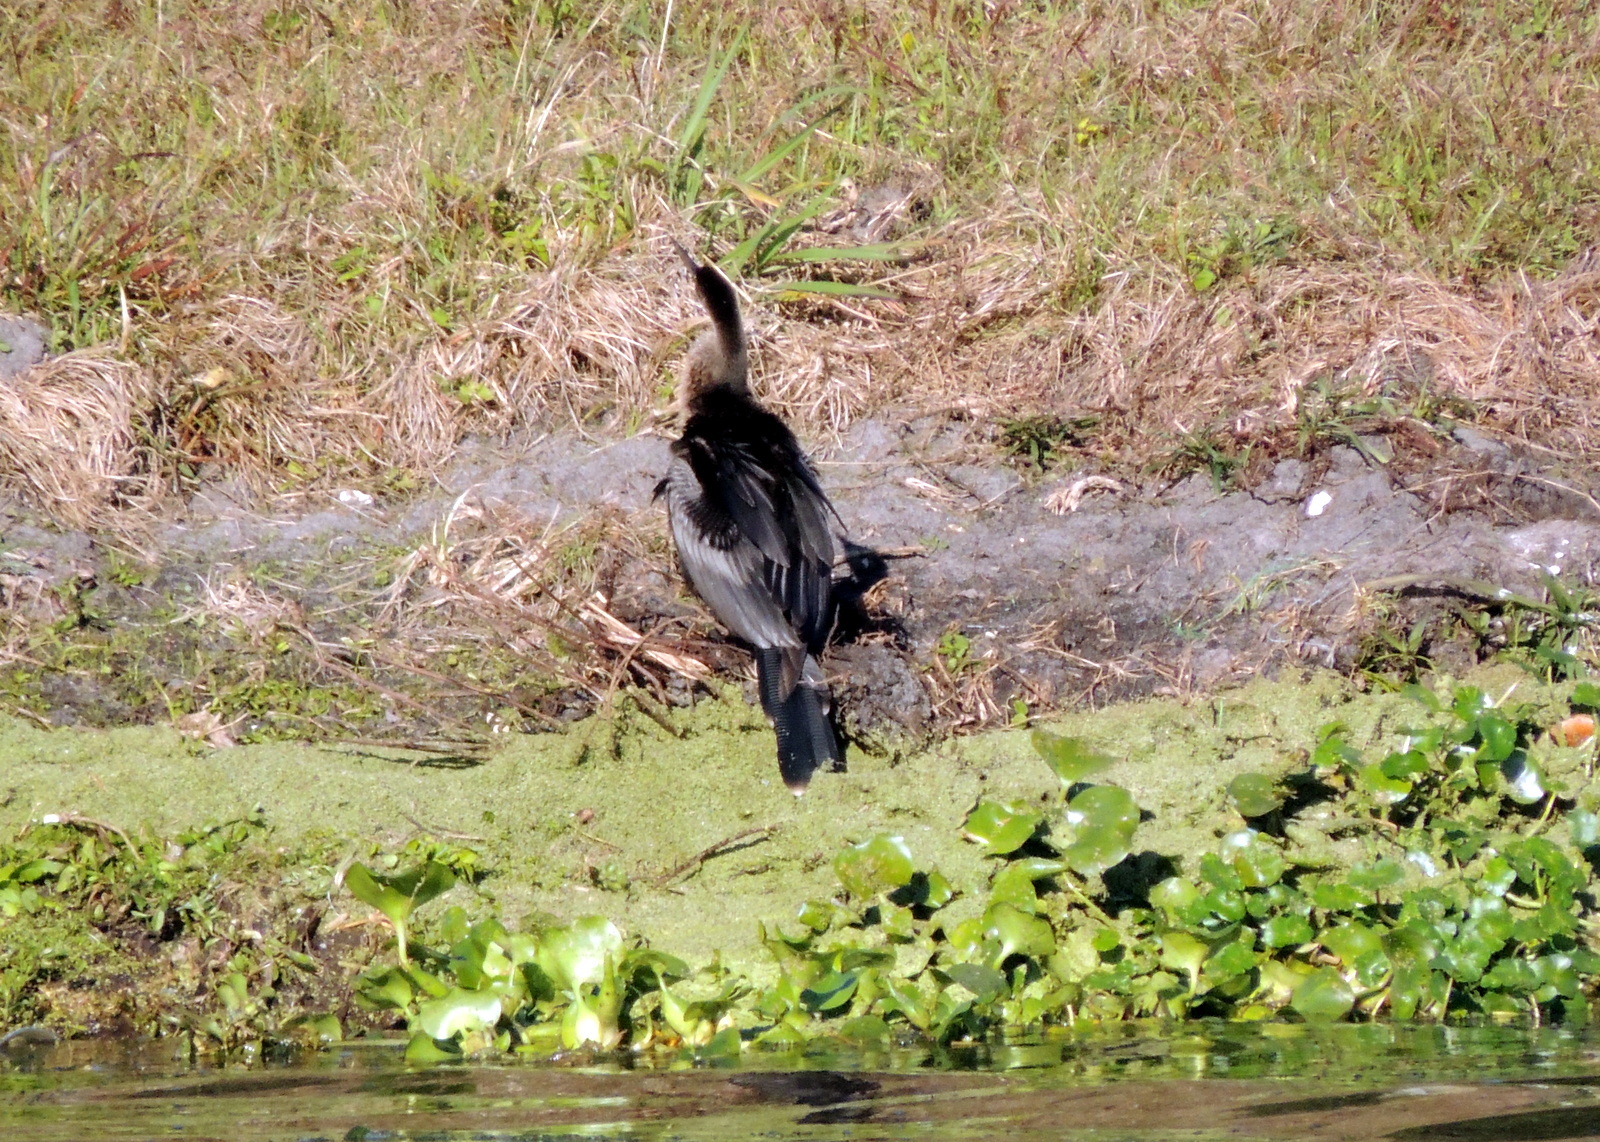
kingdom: Animalia
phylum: Chordata
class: Aves
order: Suliformes
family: Anhingidae
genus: Anhinga
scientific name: Anhinga anhinga
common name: Anhinga
